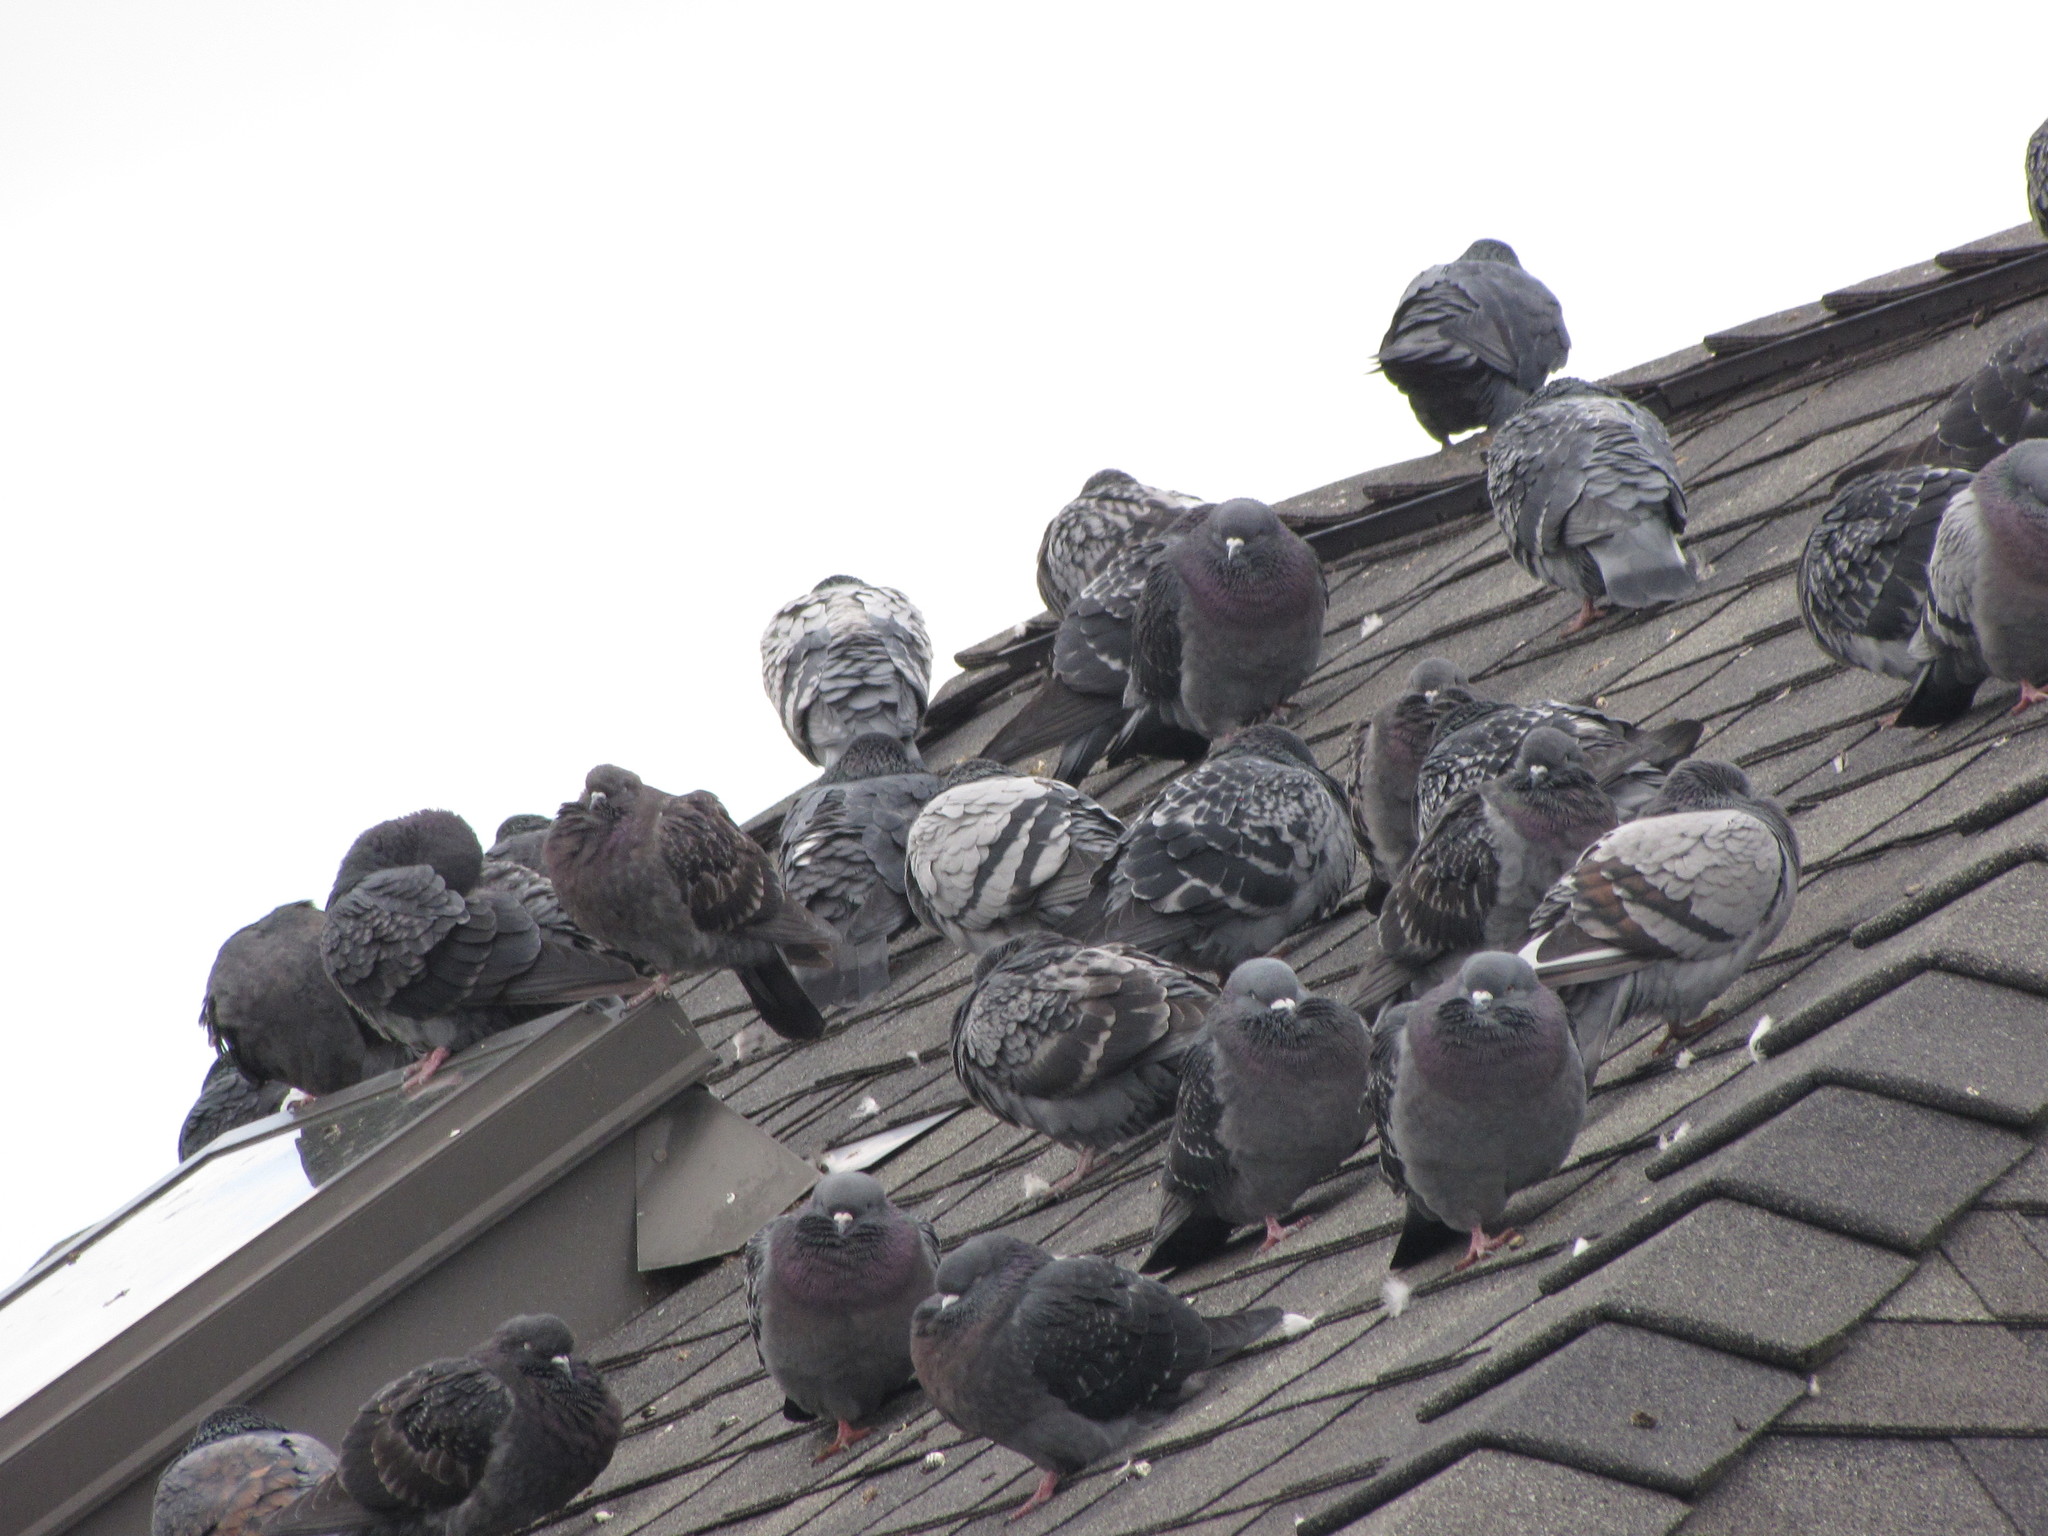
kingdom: Animalia
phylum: Chordata
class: Aves
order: Columbiformes
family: Columbidae
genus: Columba
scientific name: Columba livia
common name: Rock pigeon
